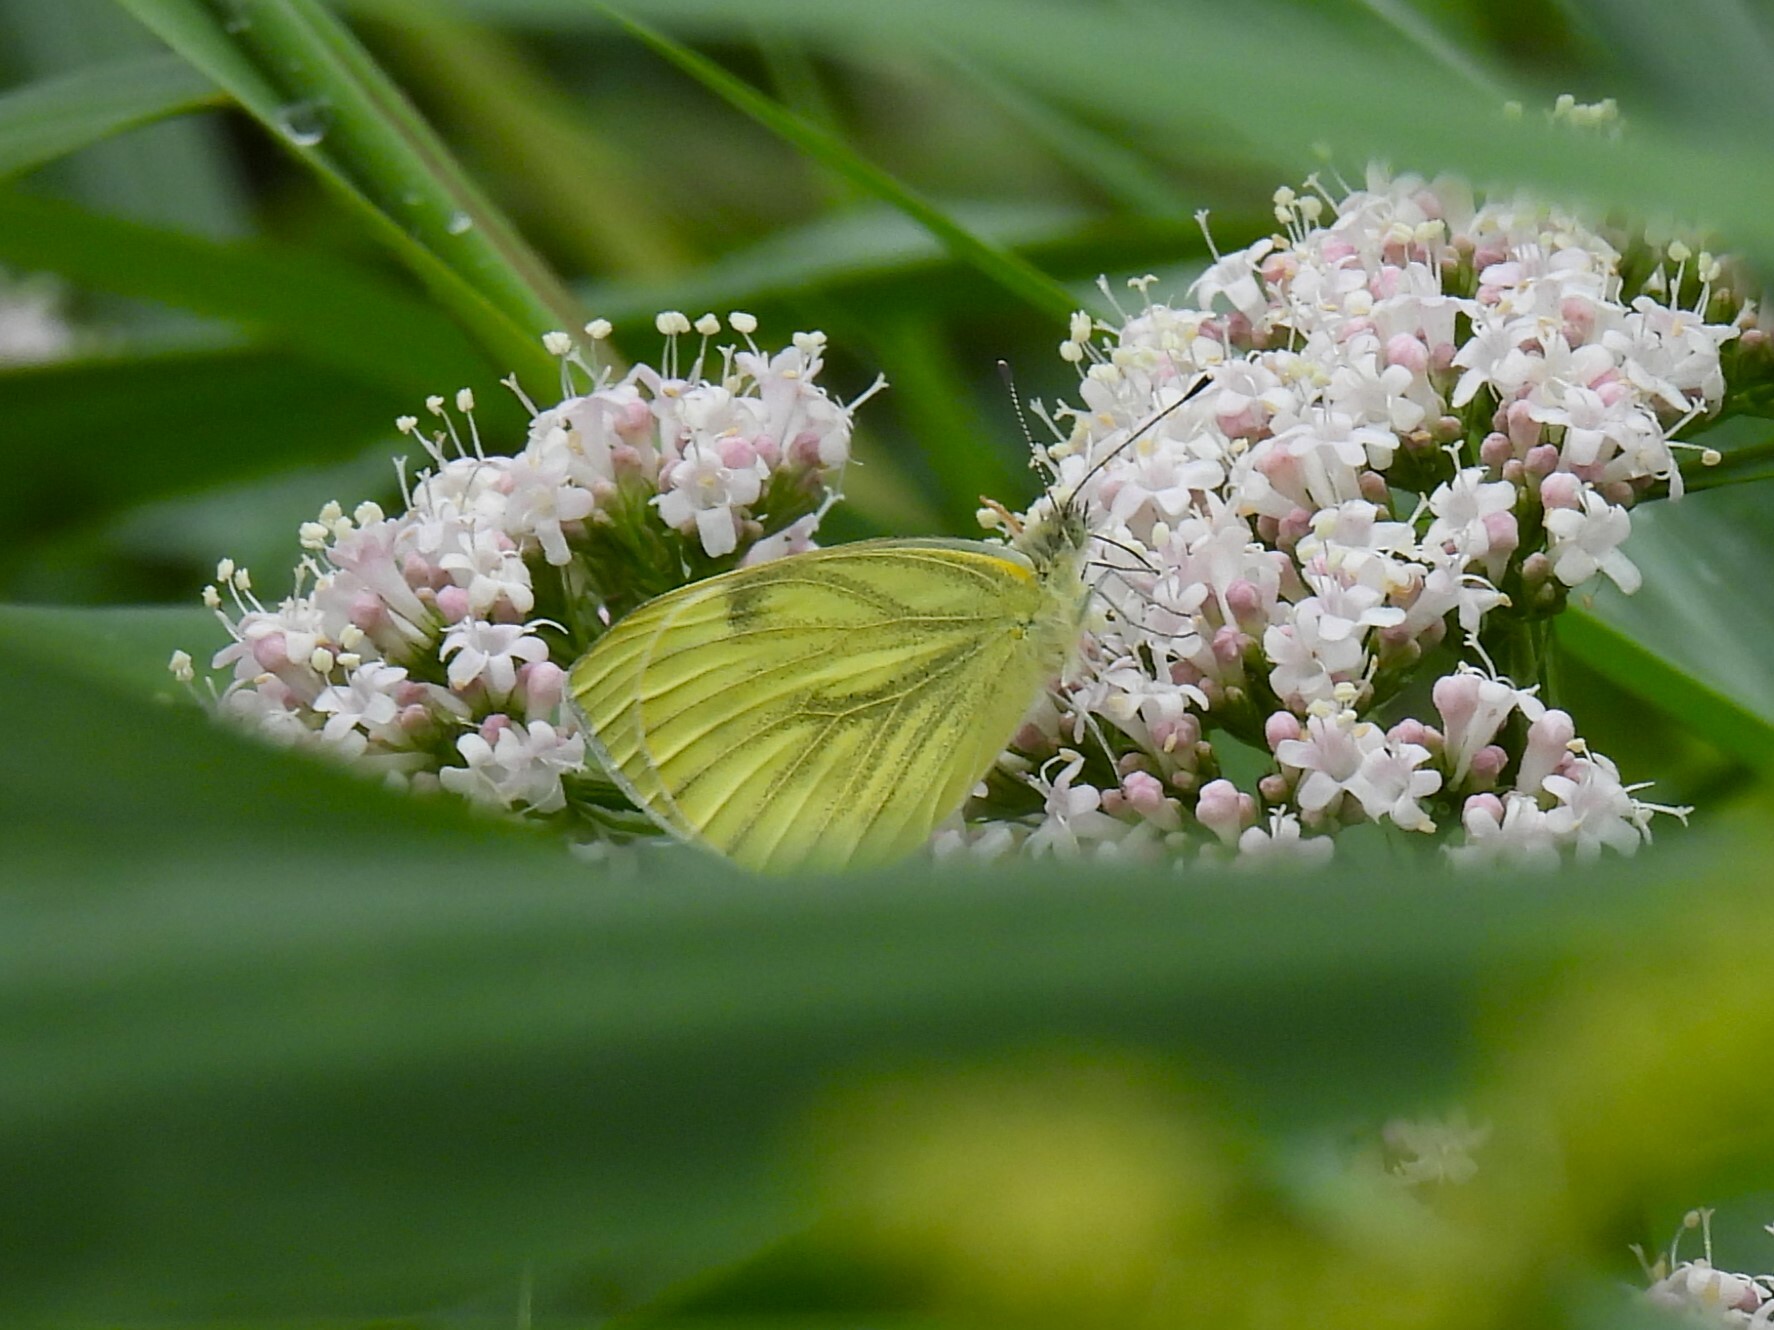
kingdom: Animalia
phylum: Arthropoda
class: Insecta
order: Lepidoptera
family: Pieridae
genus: Pieris
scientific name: Pieris napi
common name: Green-veined white
